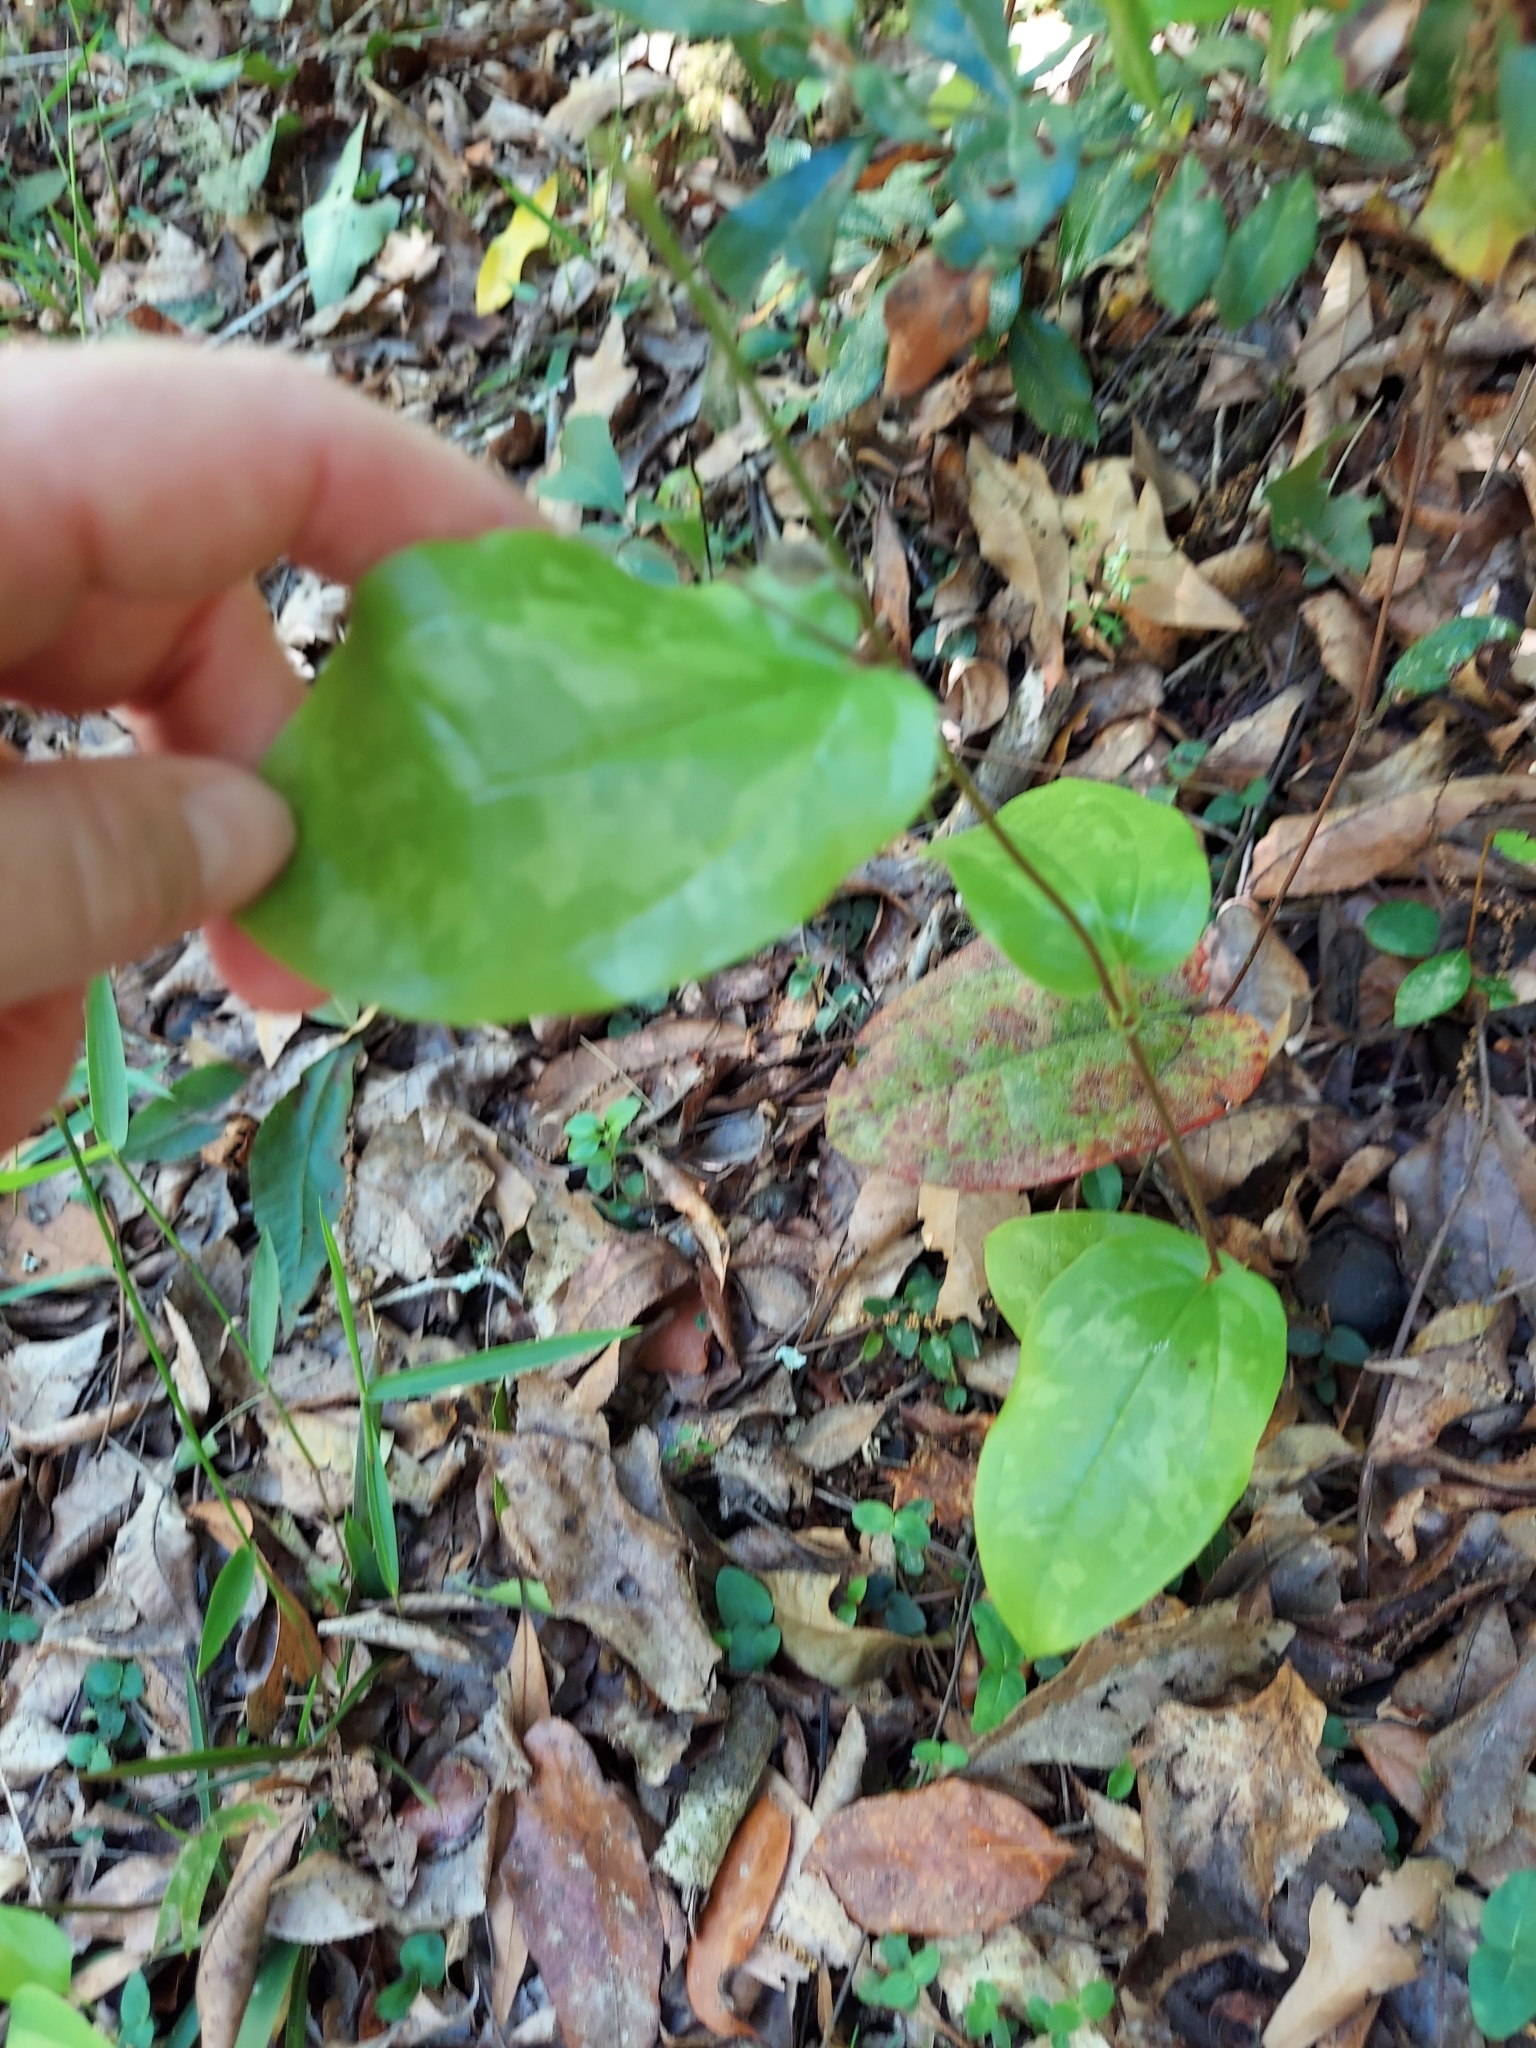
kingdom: Plantae
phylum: Tracheophyta
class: Liliopsida
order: Liliales
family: Smilacaceae
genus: Smilax
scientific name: Smilax pumila
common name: Sarsaparilla-vine
